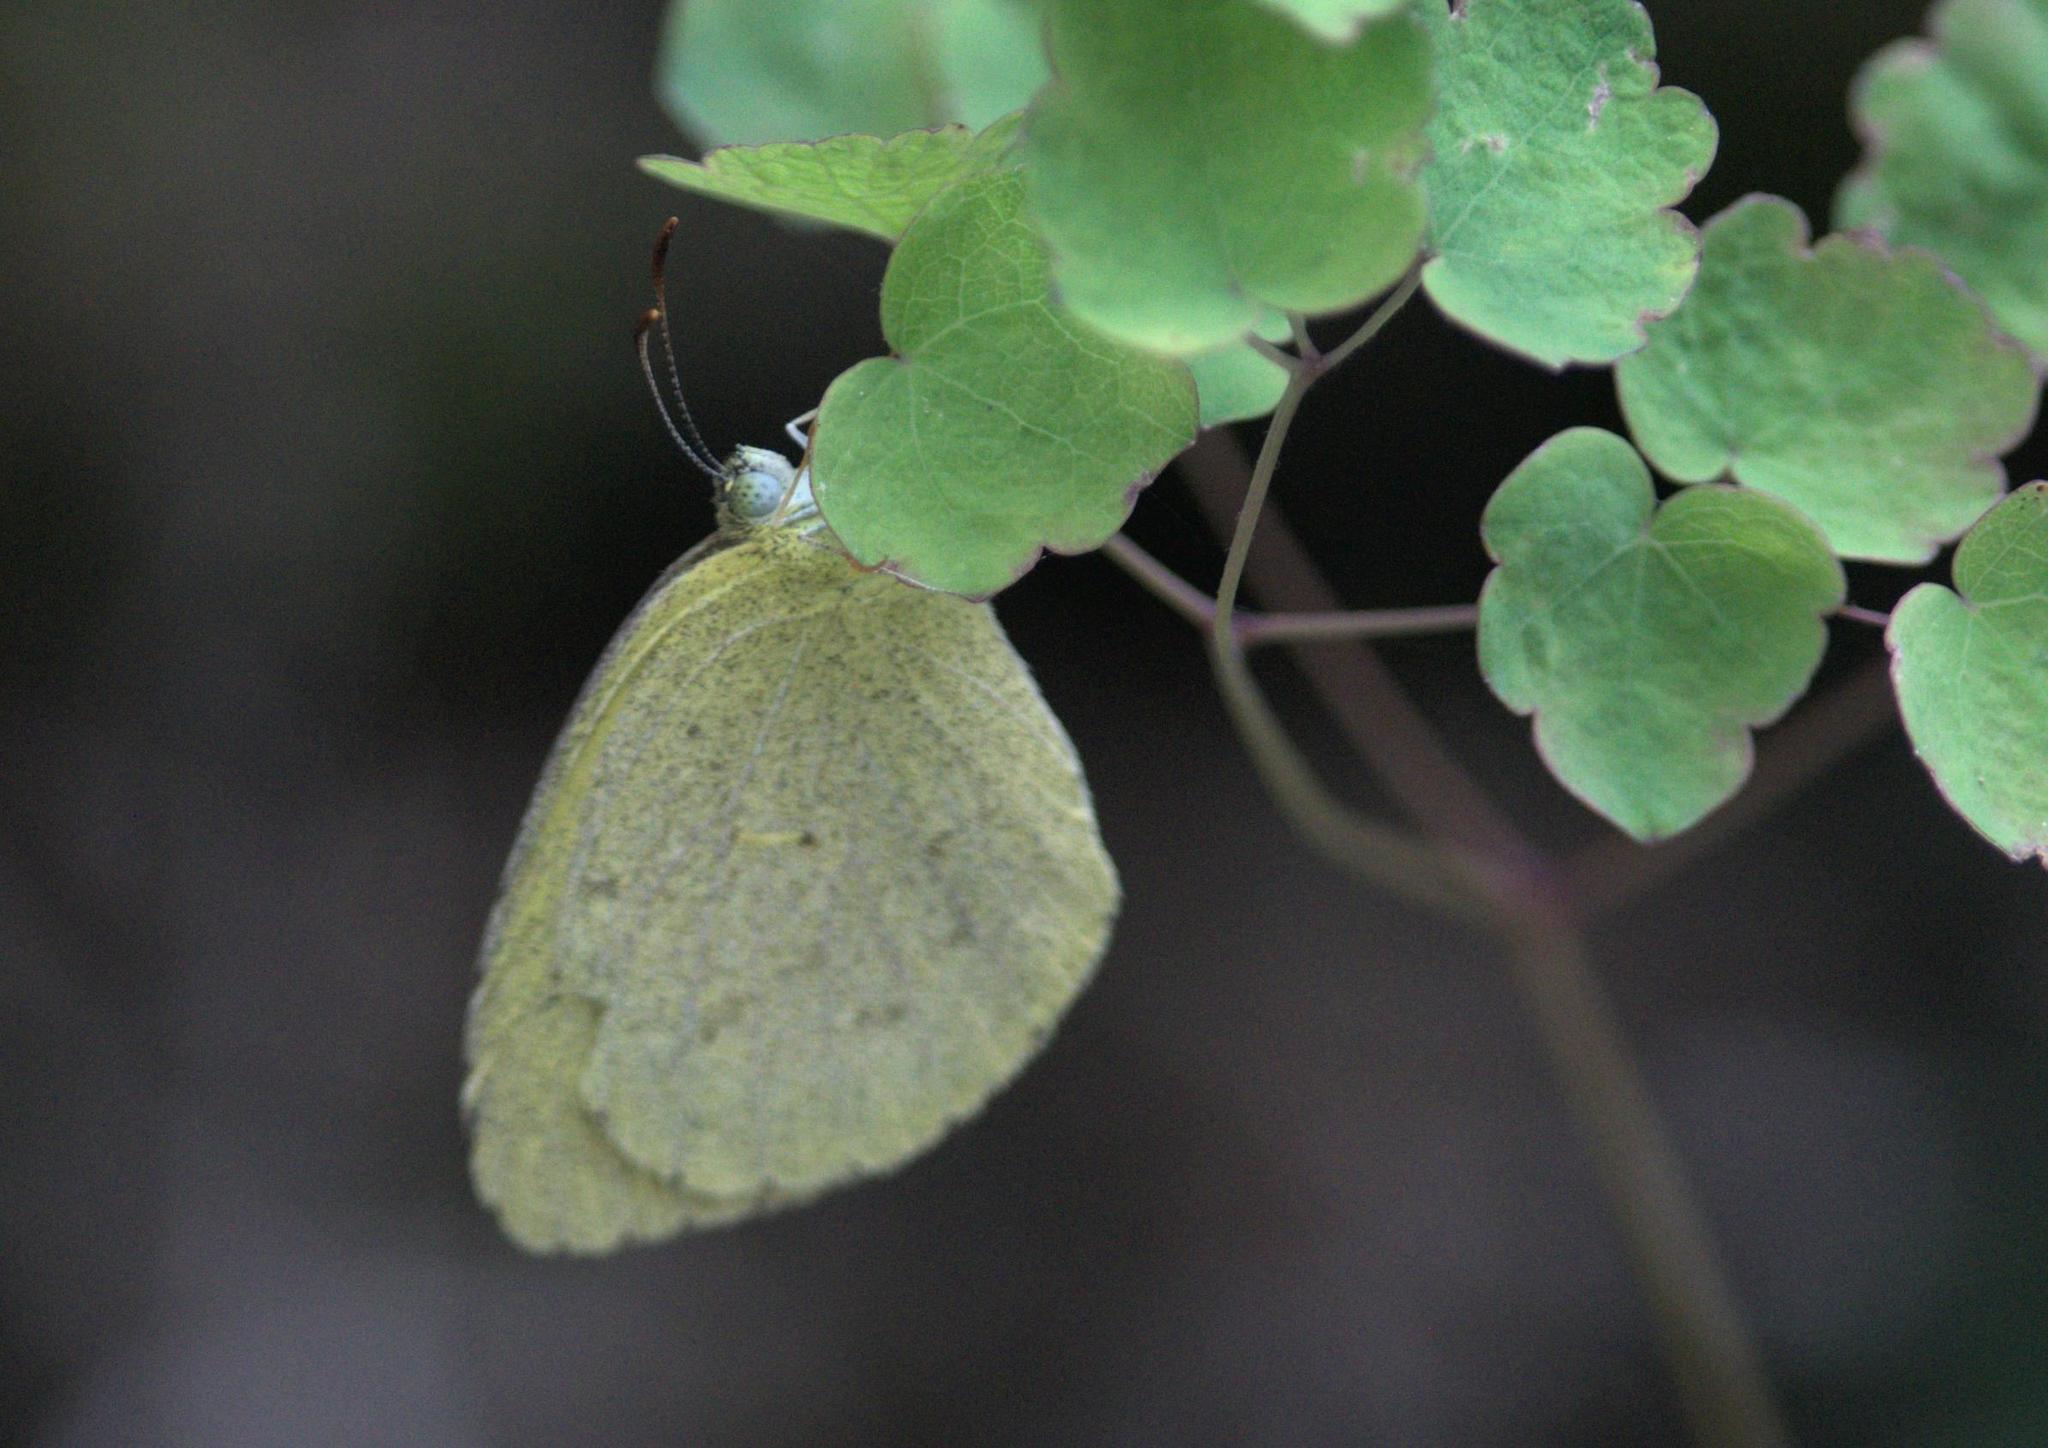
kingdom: Animalia
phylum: Arthropoda
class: Insecta
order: Lepidoptera
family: Pieridae
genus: Eurema
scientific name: Eurema brigitta
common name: Small grass yellow
